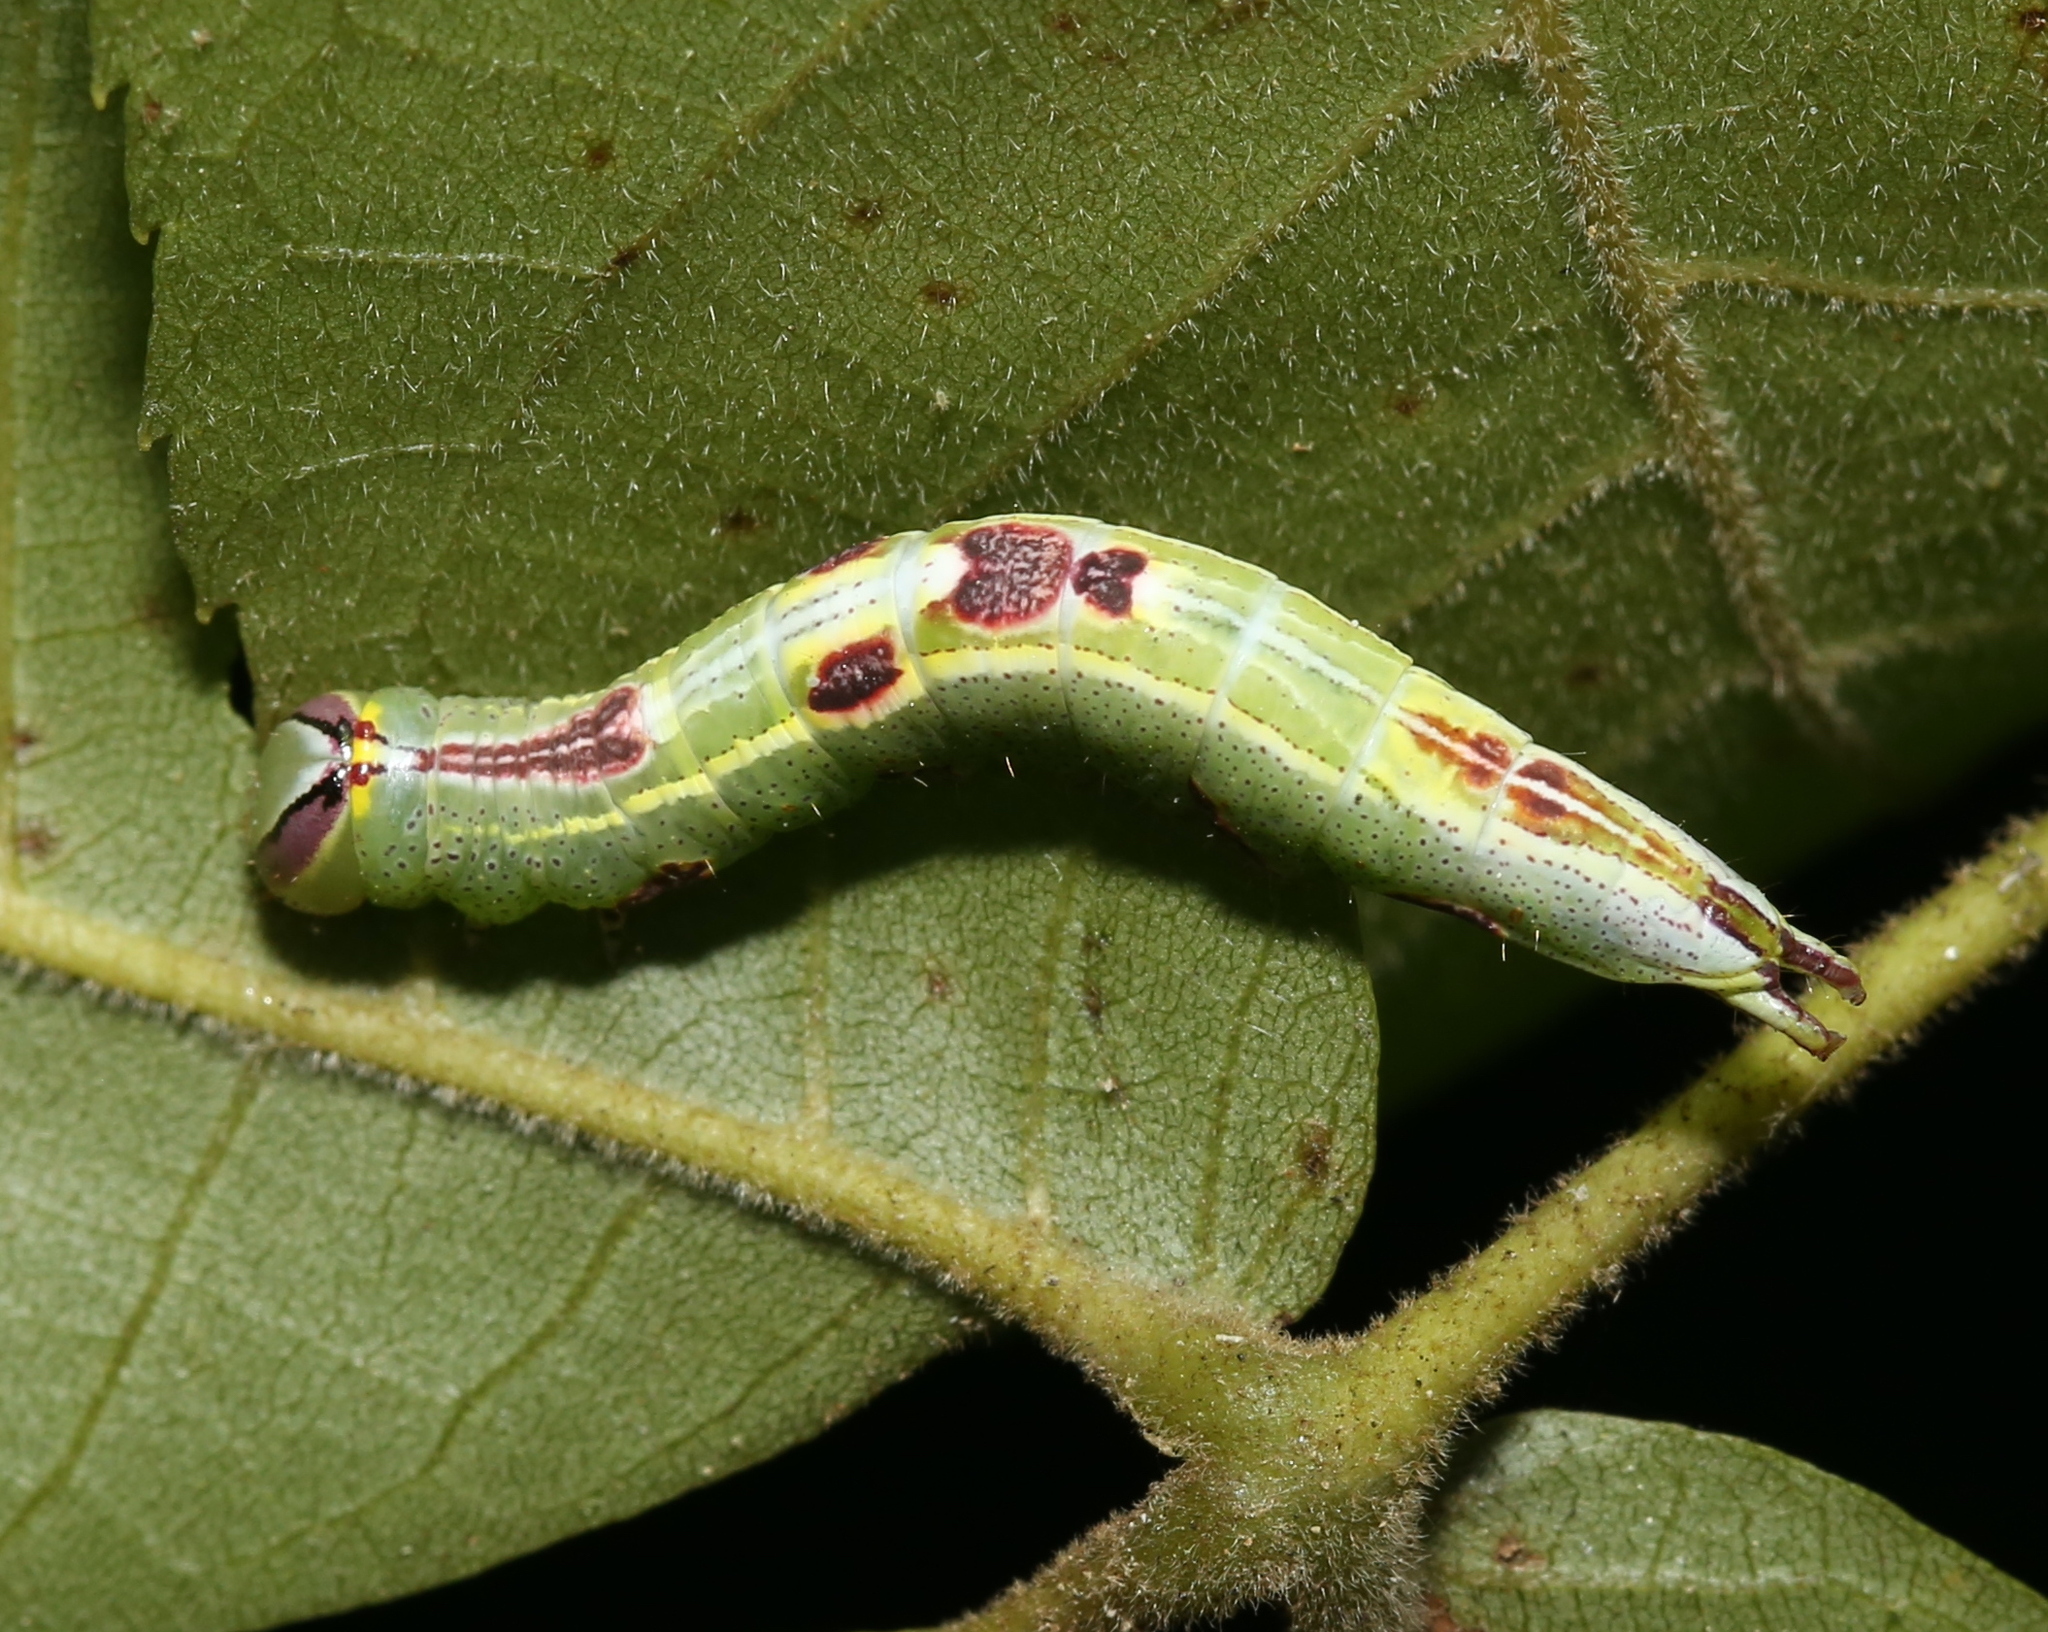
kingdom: Animalia
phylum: Arthropoda
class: Insecta
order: Lepidoptera
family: Notodontidae
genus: Disphragis
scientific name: Disphragis Cecrita guttivitta
